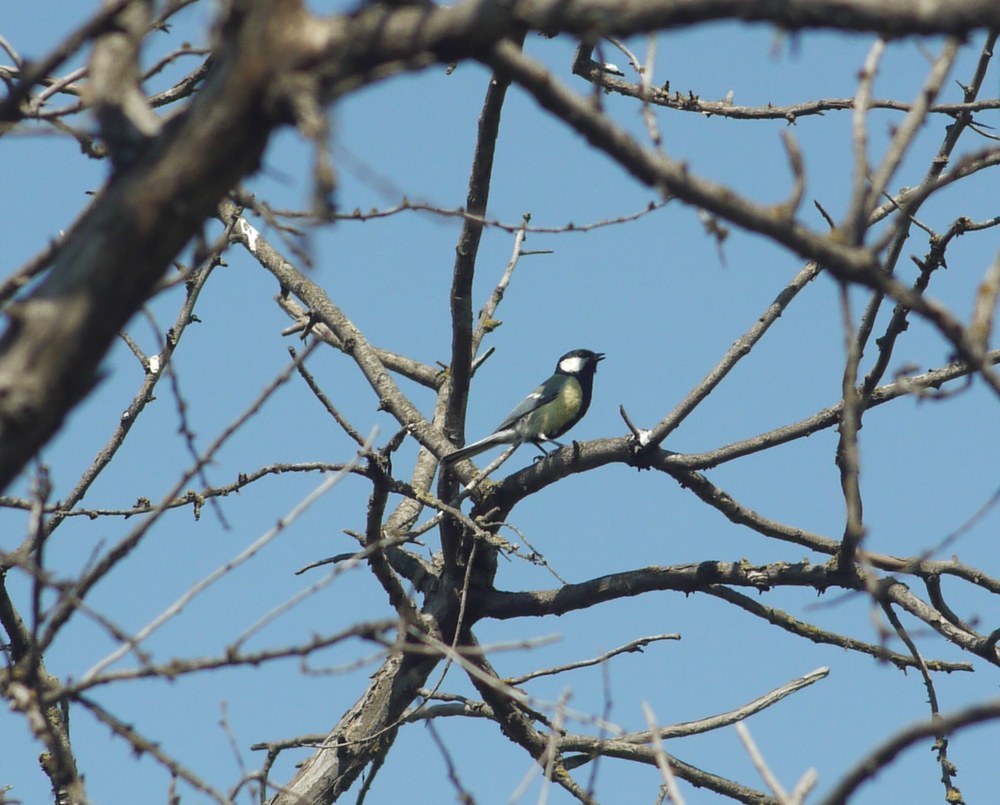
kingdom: Animalia
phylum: Chordata
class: Aves
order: Passeriformes
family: Paridae
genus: Parus
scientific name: Parus major
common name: Great tit
